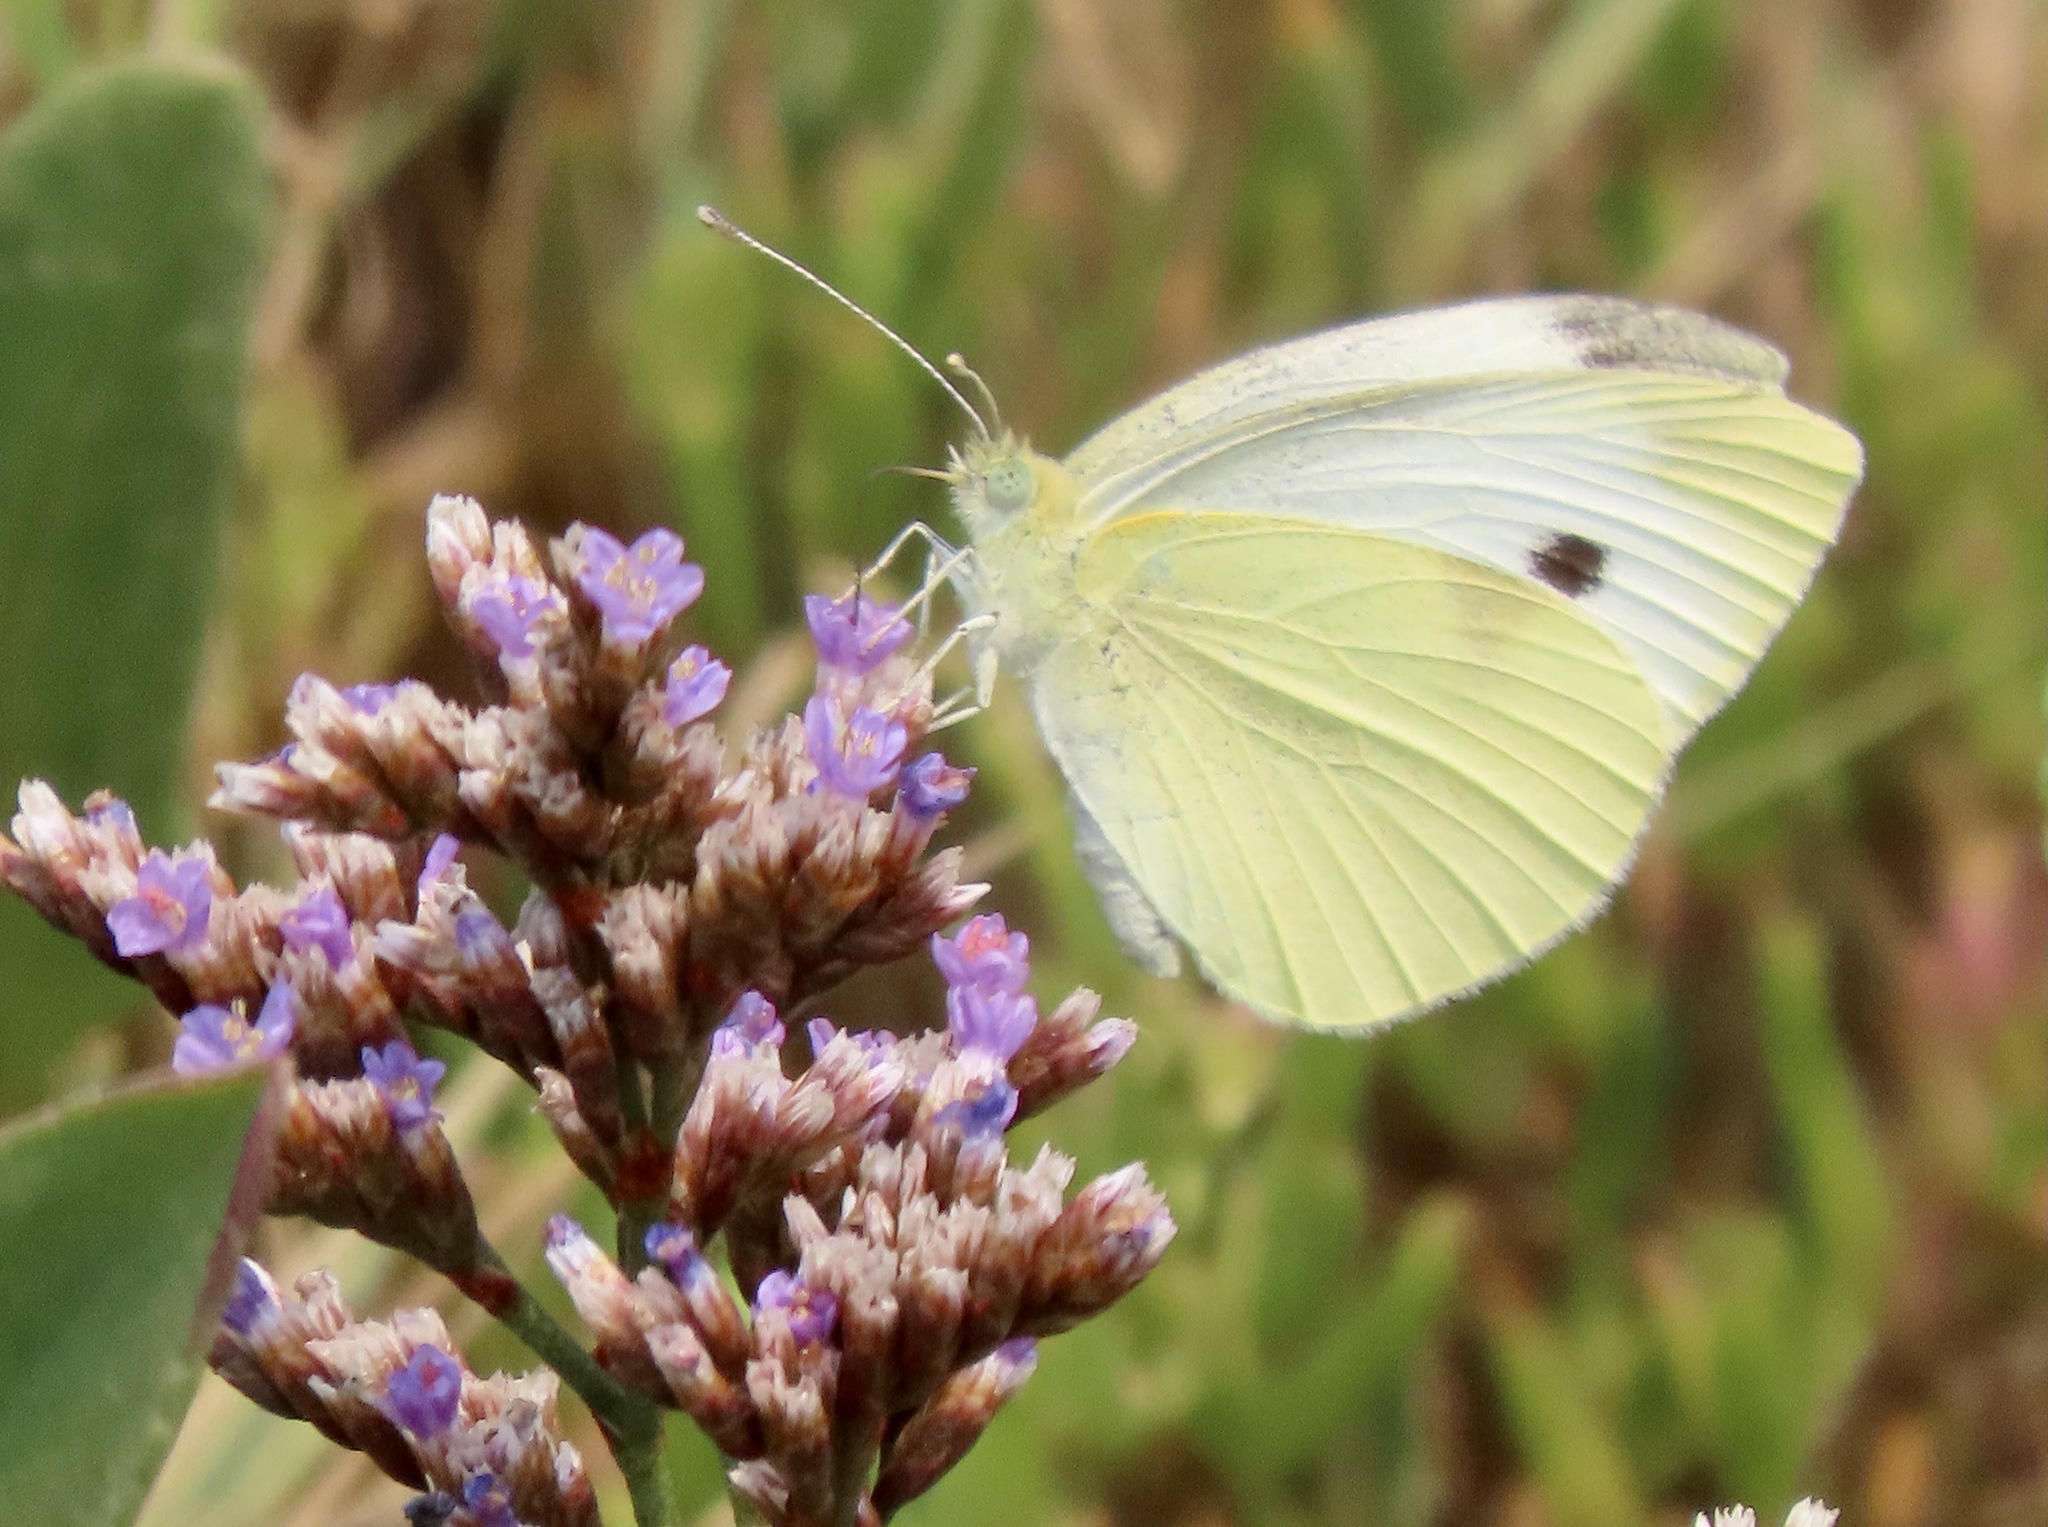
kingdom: Animalia
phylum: Arthropoda
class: Insecta
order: Lepidoptera
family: Pieridae
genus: Pieris
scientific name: Pieris rapae
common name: Small white
